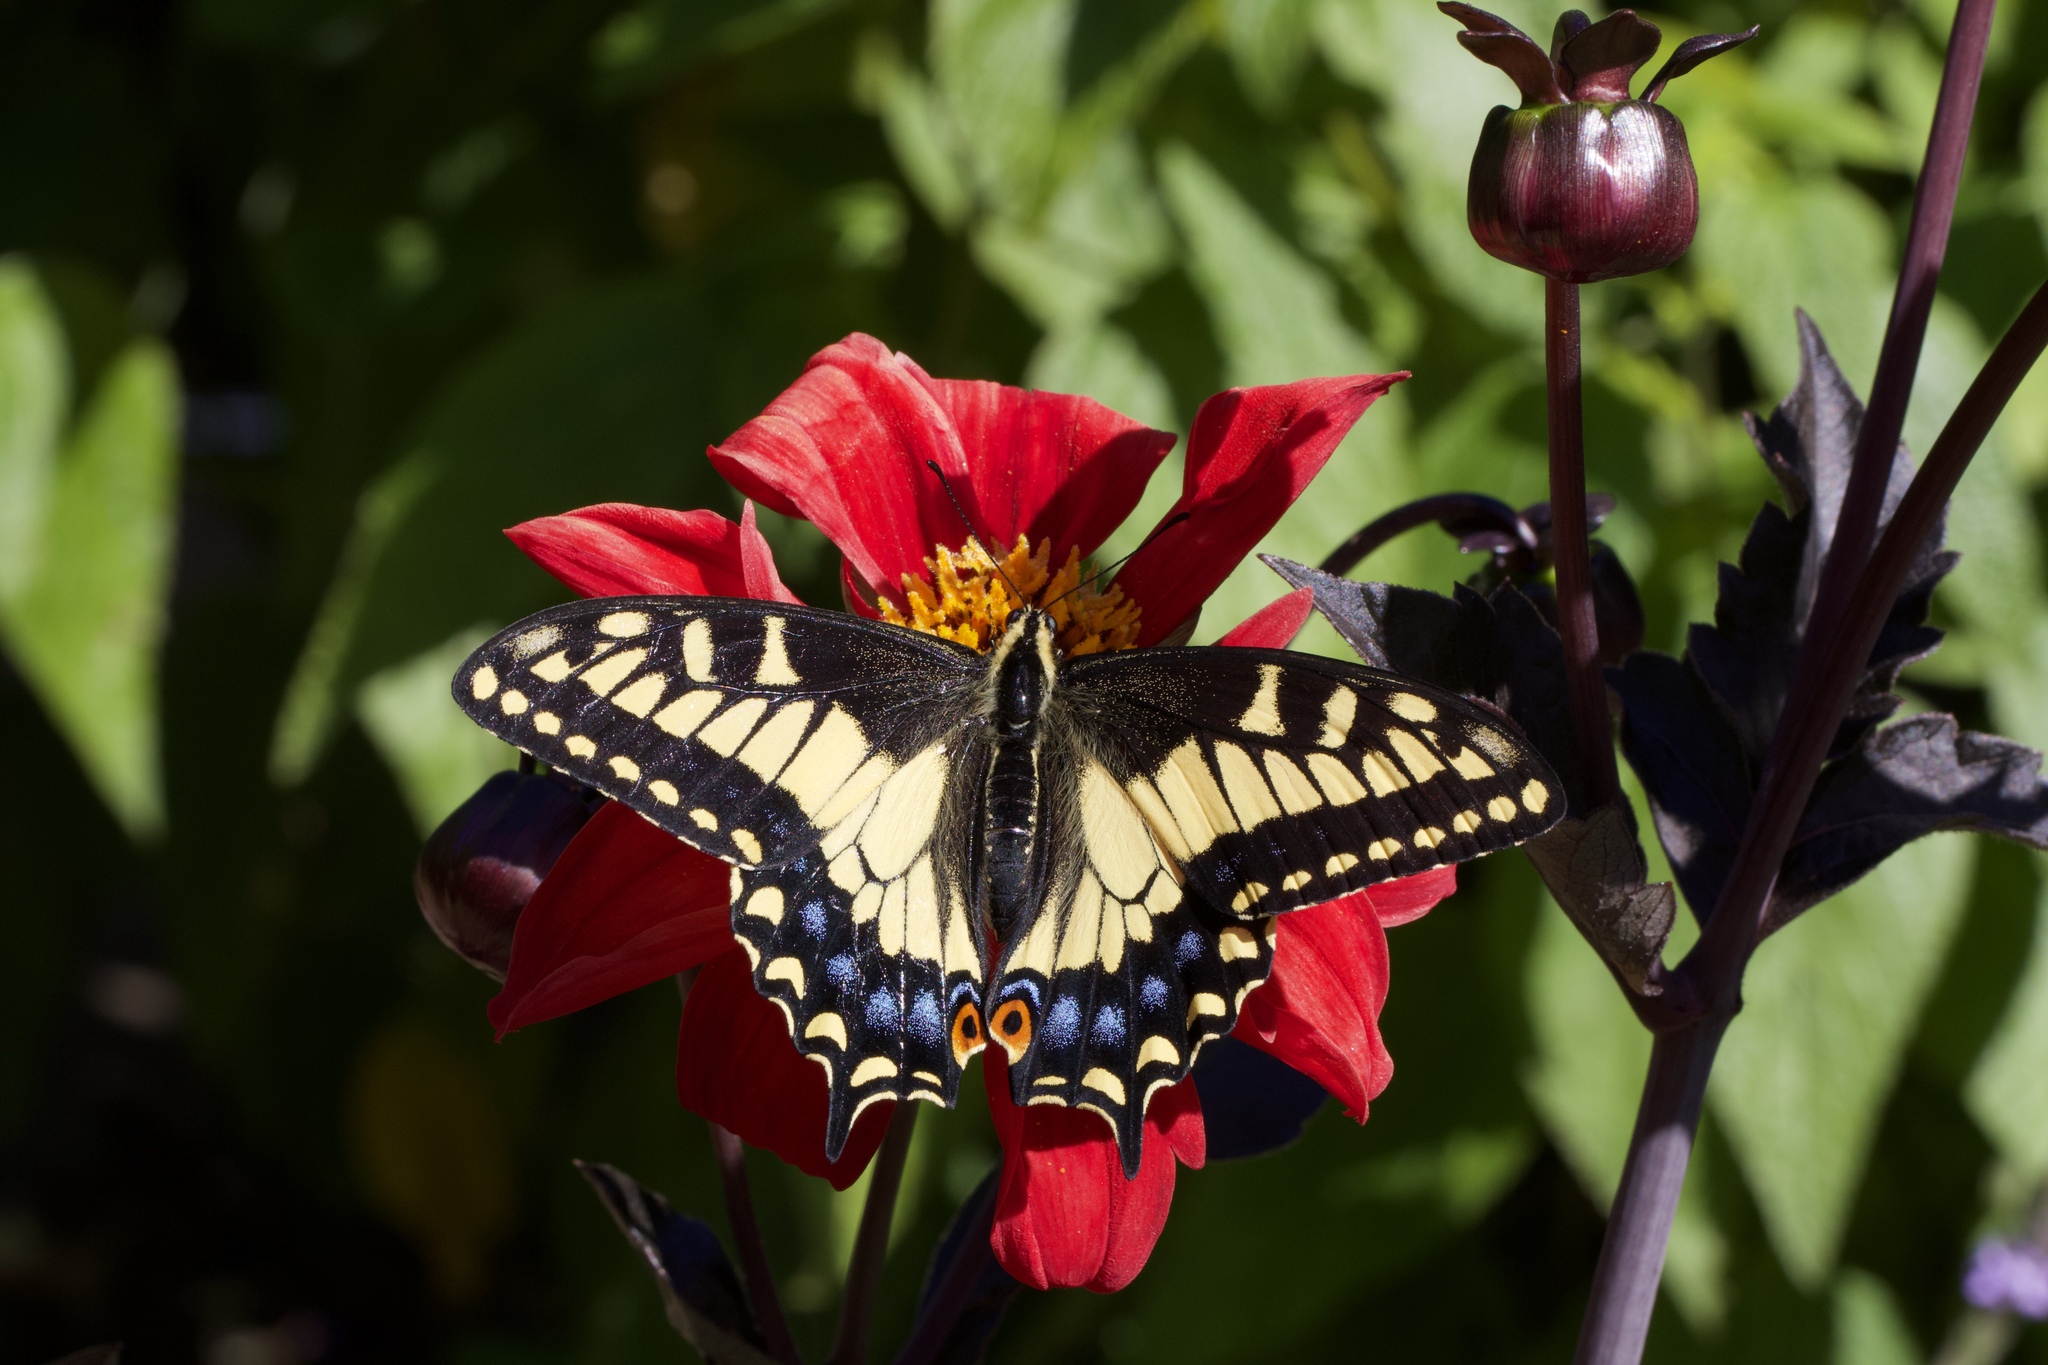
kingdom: Animalia
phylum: Arthropoda
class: Insecta
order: Lepidoptera
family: Papilionidae
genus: Papilio
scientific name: Papilio zelicaon
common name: Anise swallowtail
